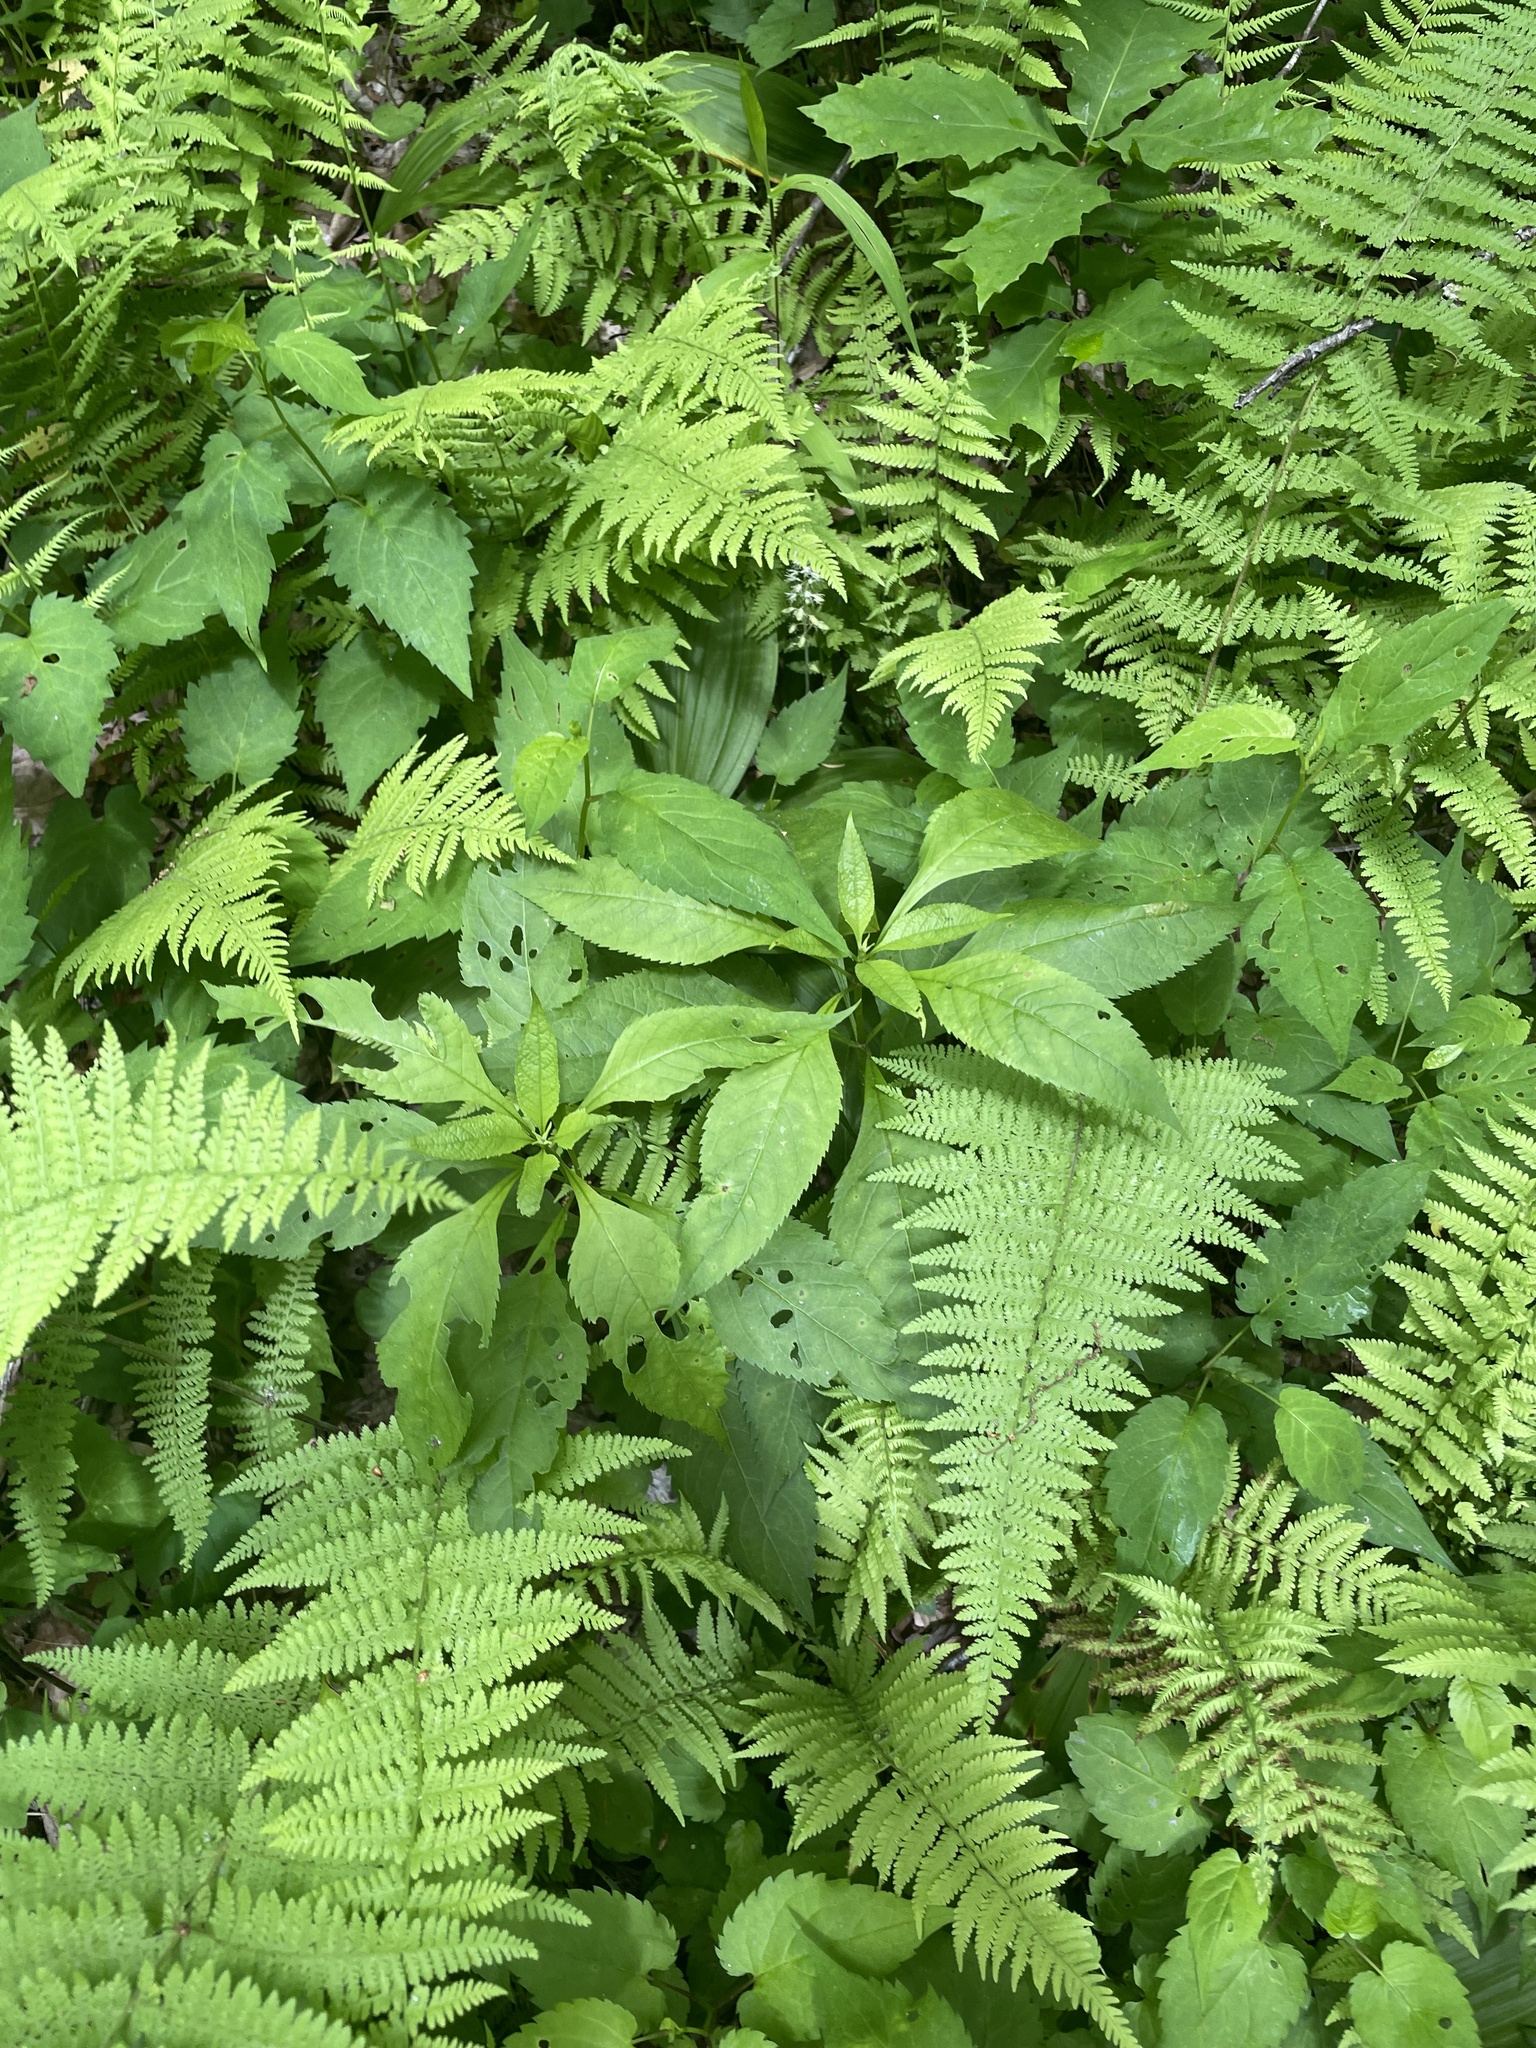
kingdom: Plantae
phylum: Tracheophyta
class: Magnoliopsida
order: Asterales
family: Asteraceae
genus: Eutrochium
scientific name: Eutrochium purpureum
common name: Gravelroot
